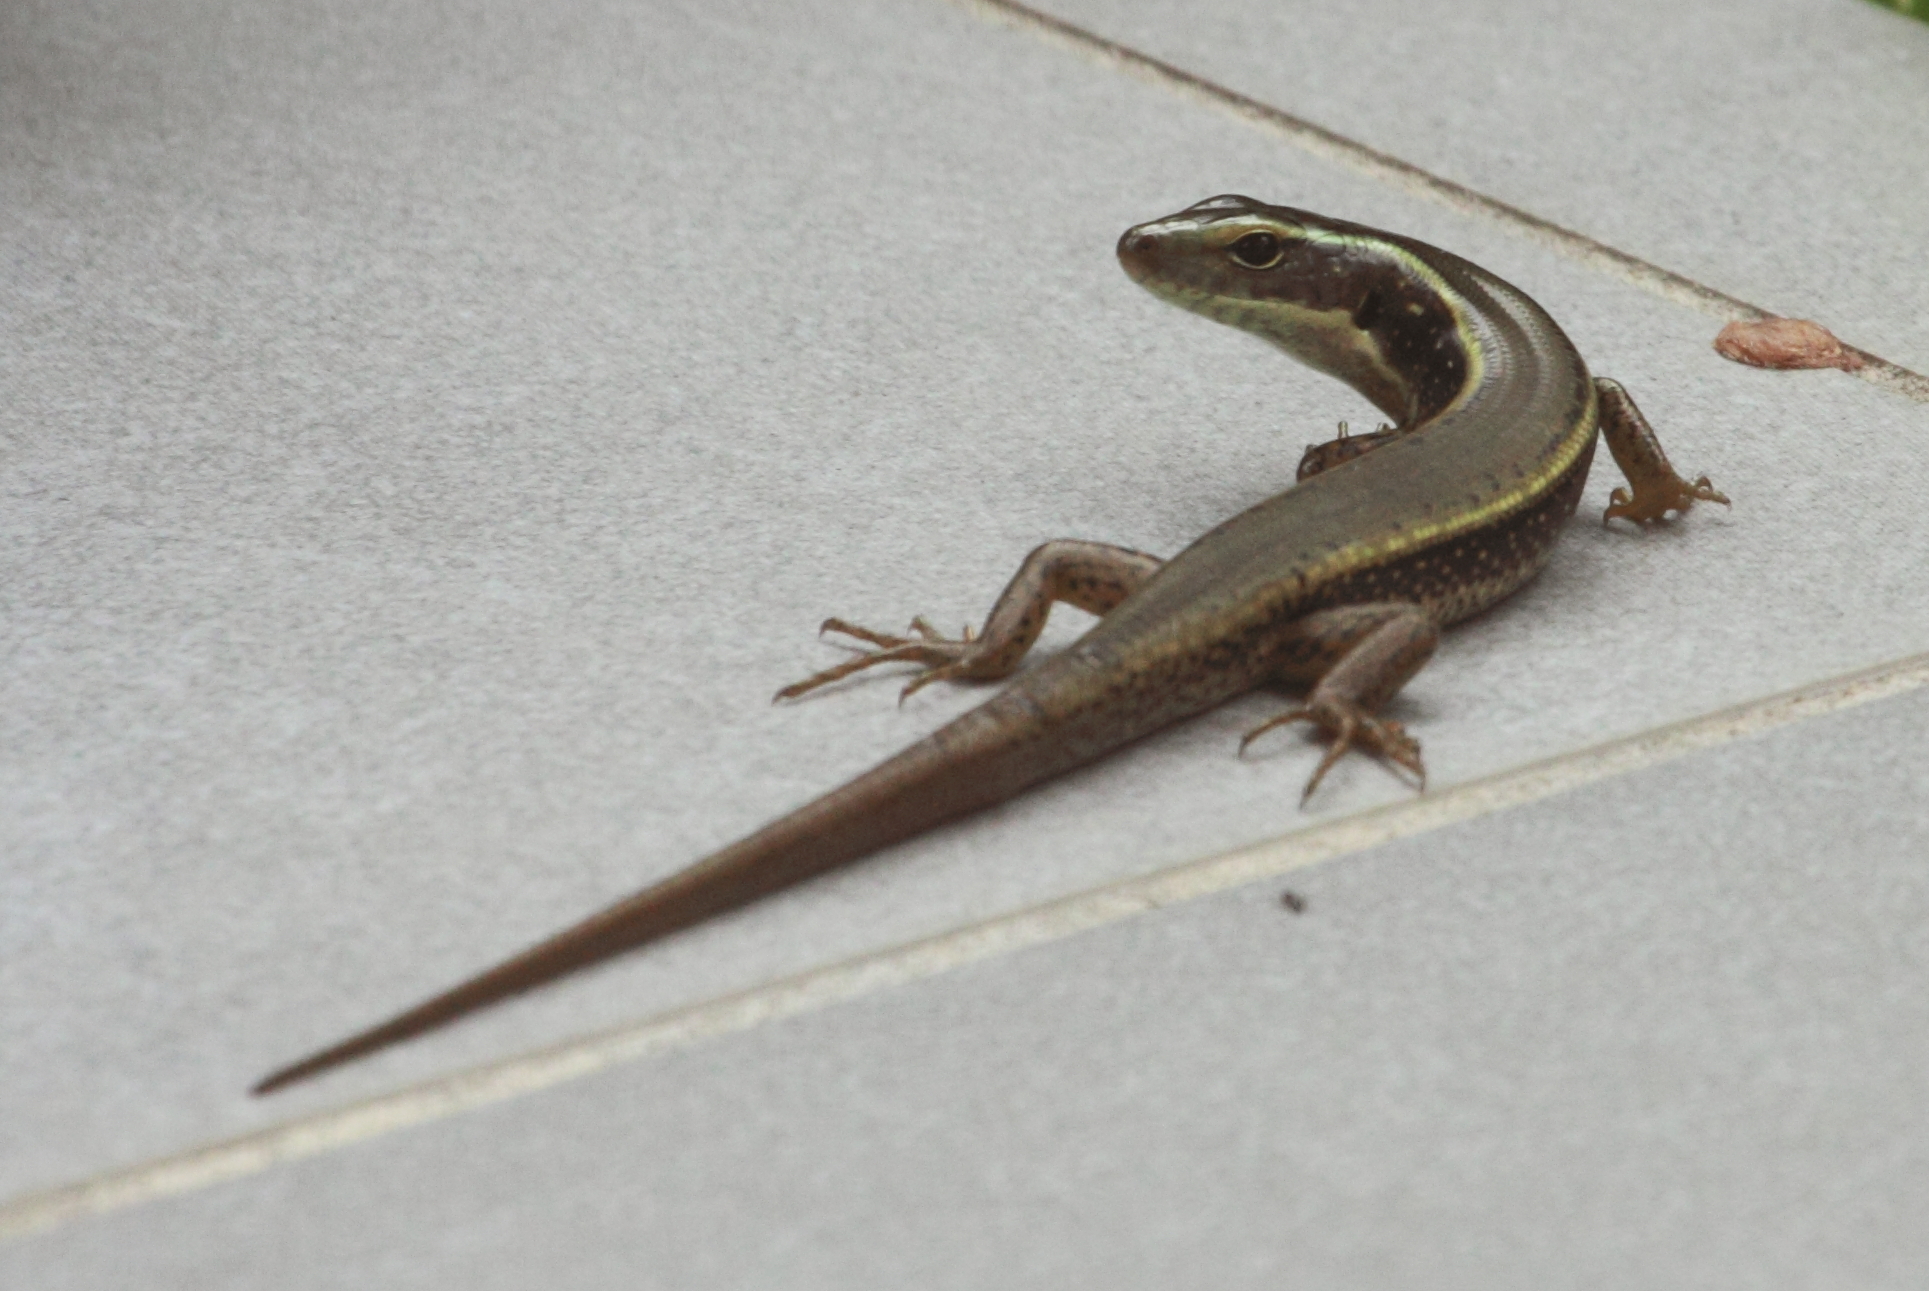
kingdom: Animalia
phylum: Chordata
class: Squamata
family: Scincidae
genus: Eulamprus
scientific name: Eulamprus quoyii
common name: Eastern water skink
